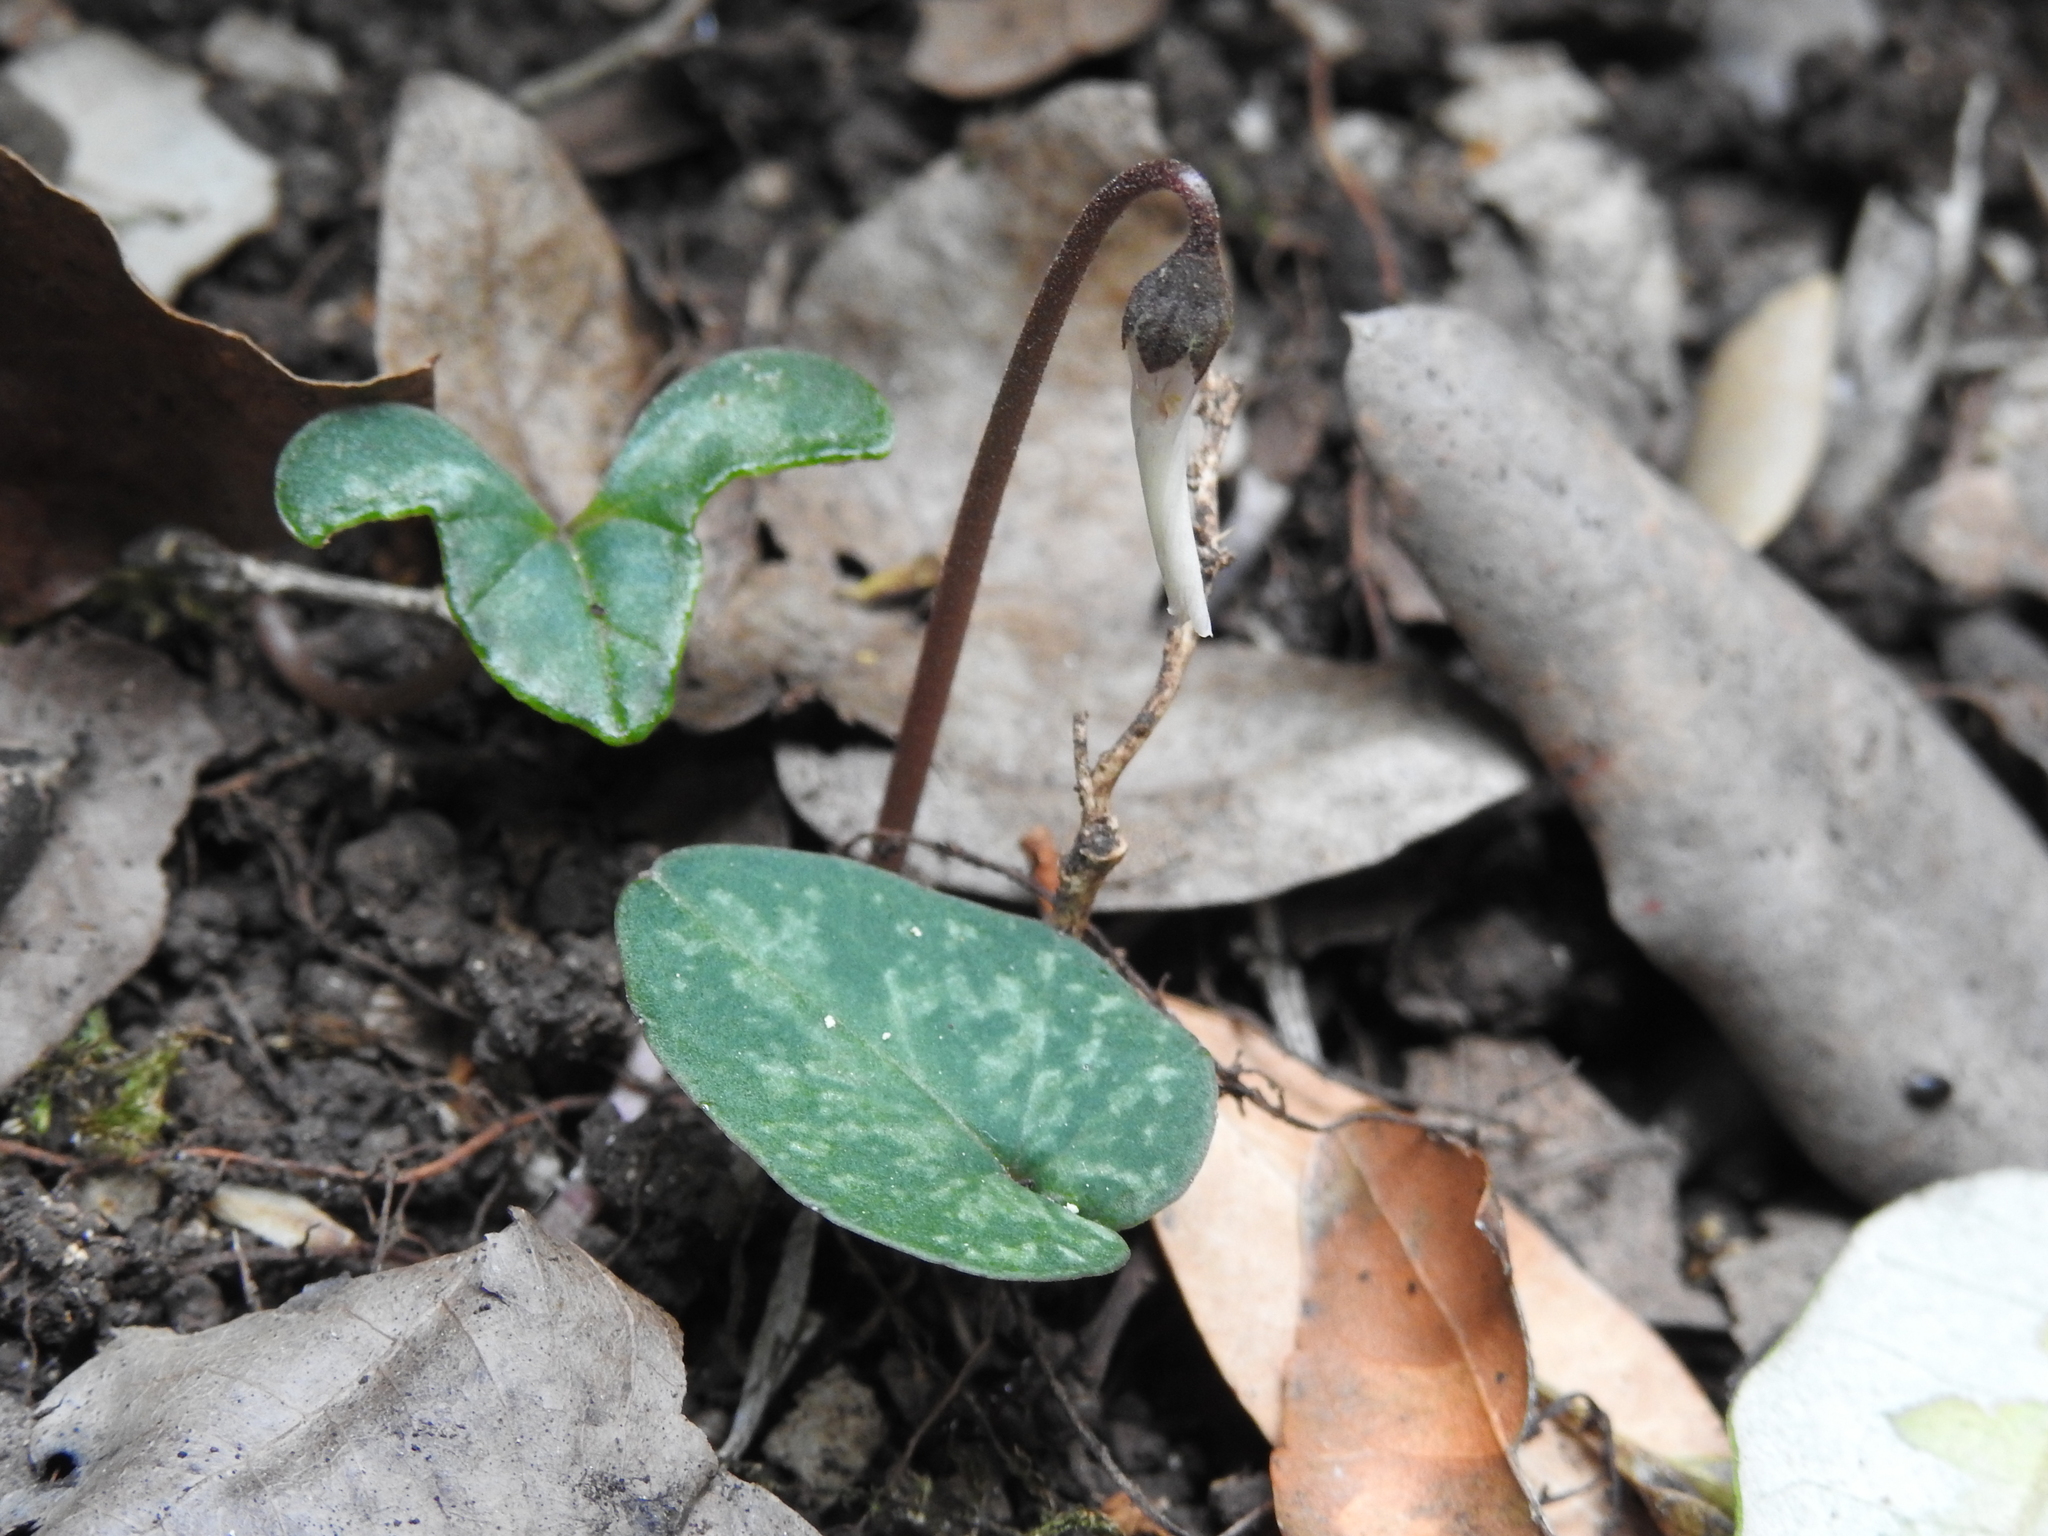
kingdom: Plantae
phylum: Tracheophyta
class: Magnoliopsida
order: Ericales
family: Primulaceae
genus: Cyclamen
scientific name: Cyclamen balearicum
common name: Majorca cyclamen
